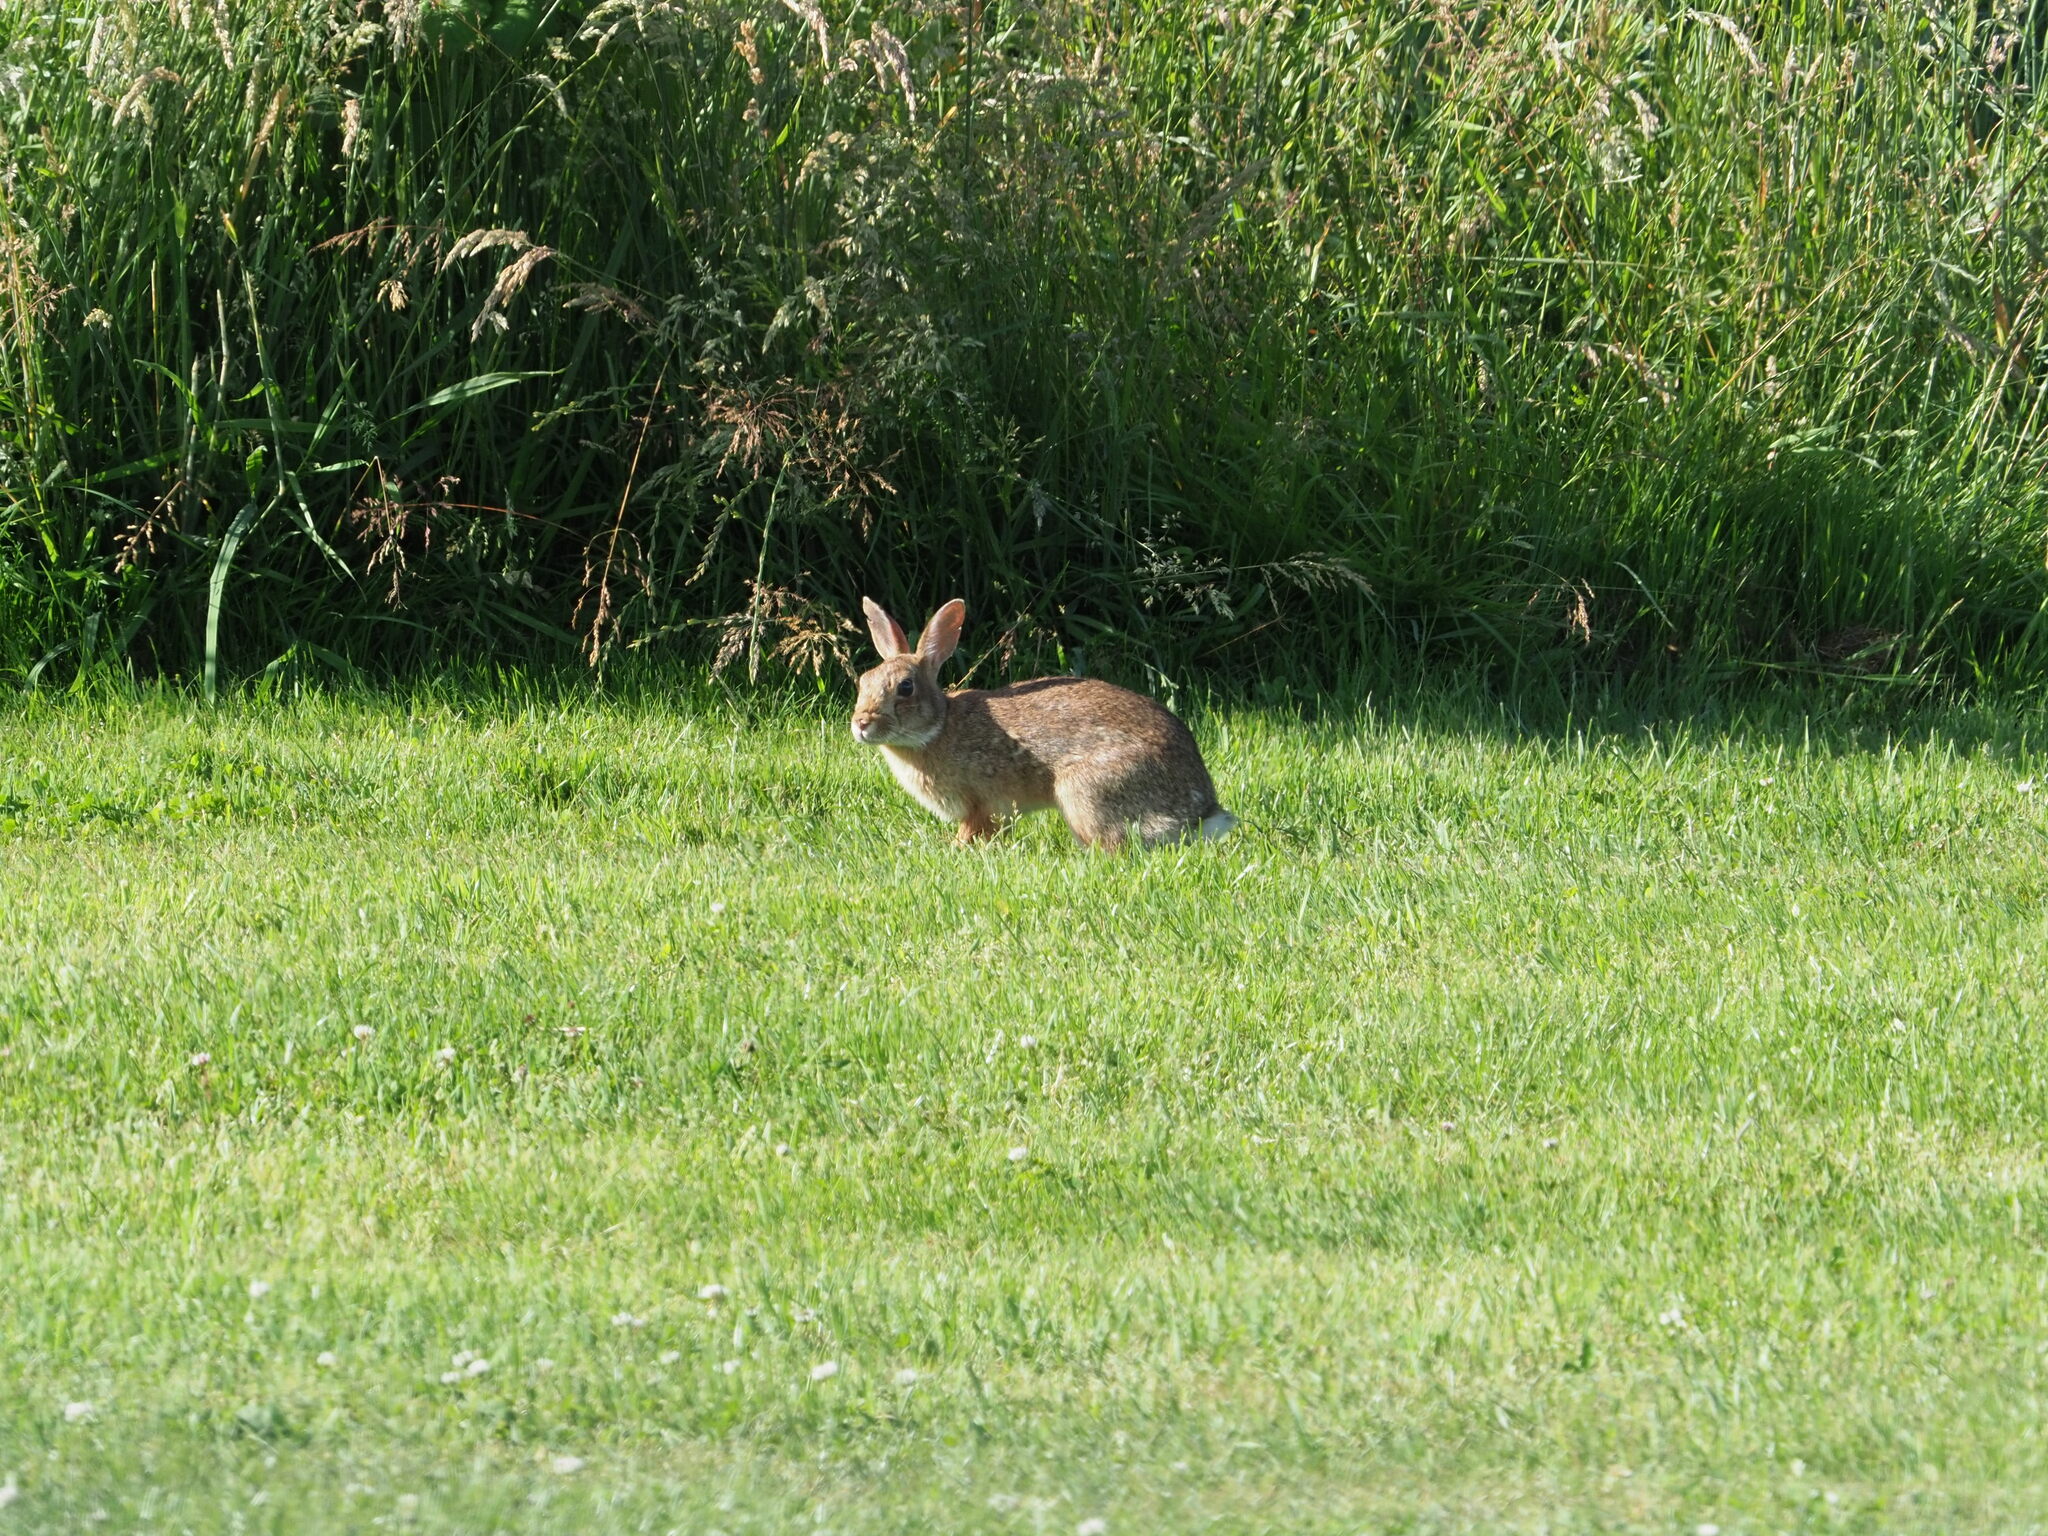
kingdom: Animalia
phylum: Chordata
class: Mammalia
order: Lagomorpha
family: Leporidae
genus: Oryctolagus
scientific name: Oryctolagus cuniculus
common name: European rabbit
